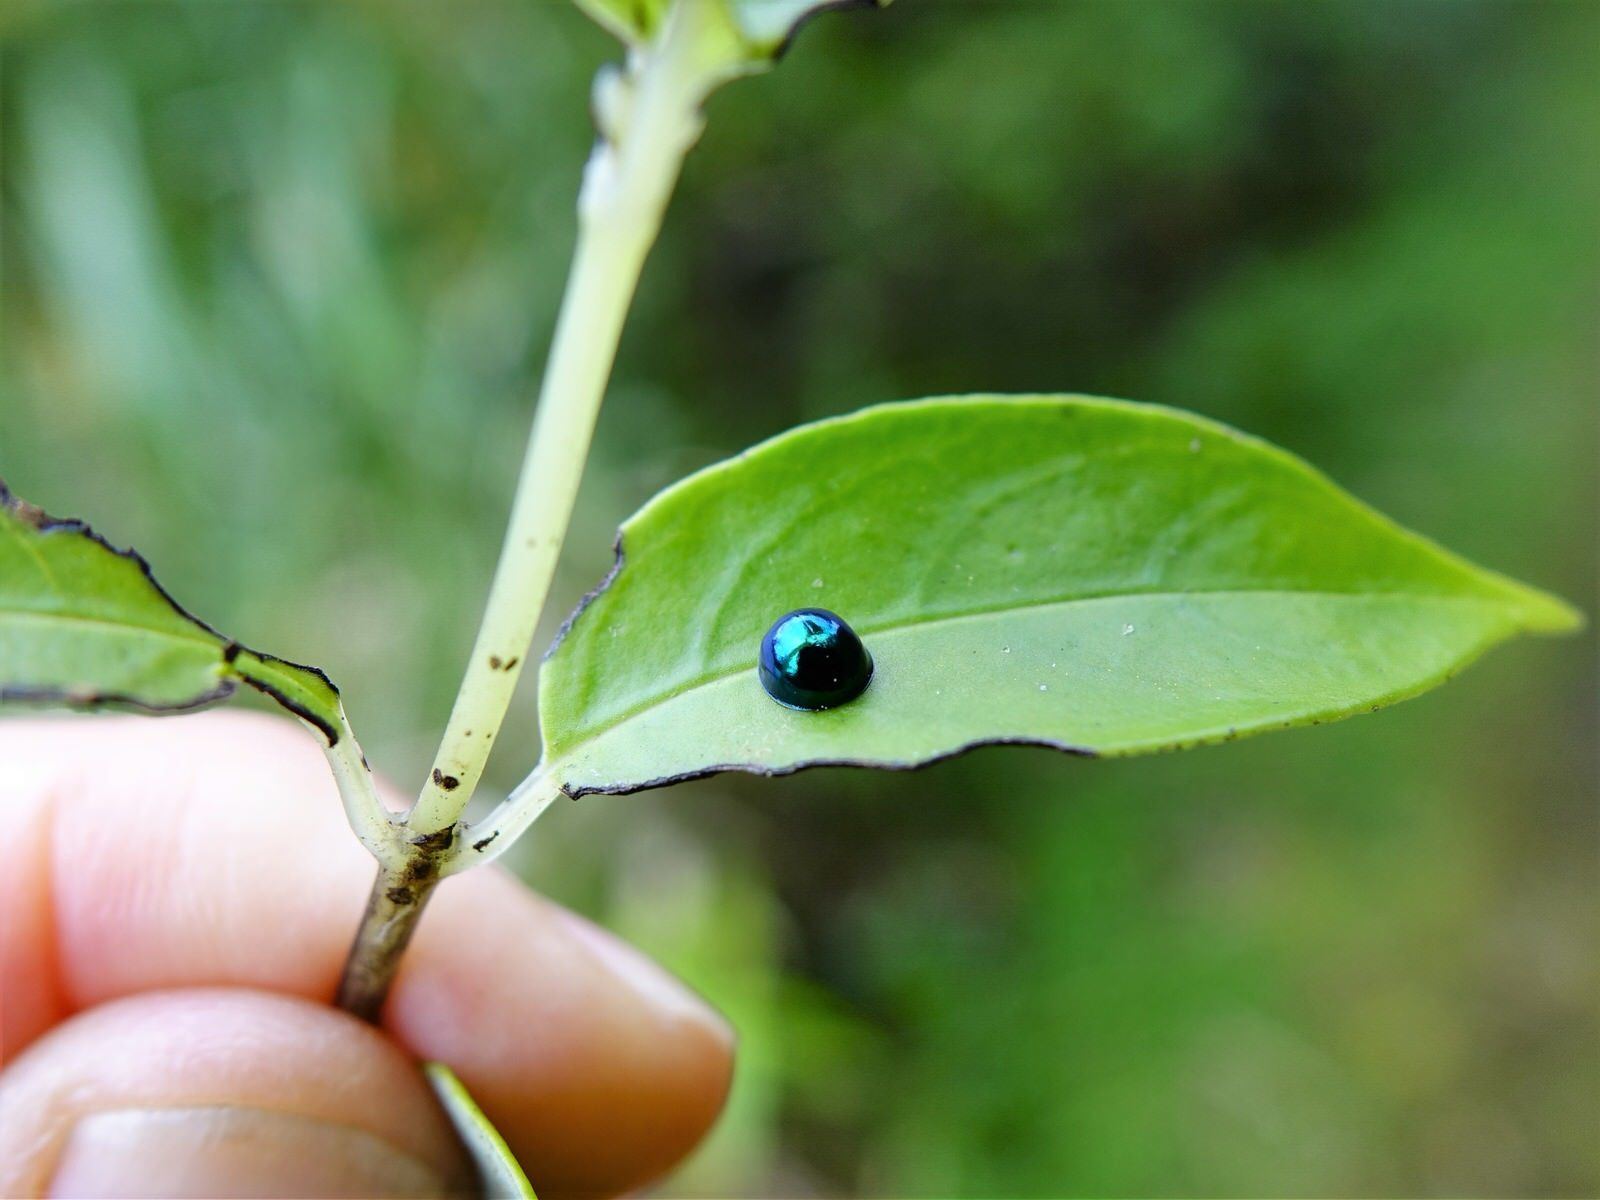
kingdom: Animalia
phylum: Arthropoda
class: Insecta
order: Coleoptera
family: Coccinellidae
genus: Halmus
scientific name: Halmus chalybeus
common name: Steel blue ladybird beetle
